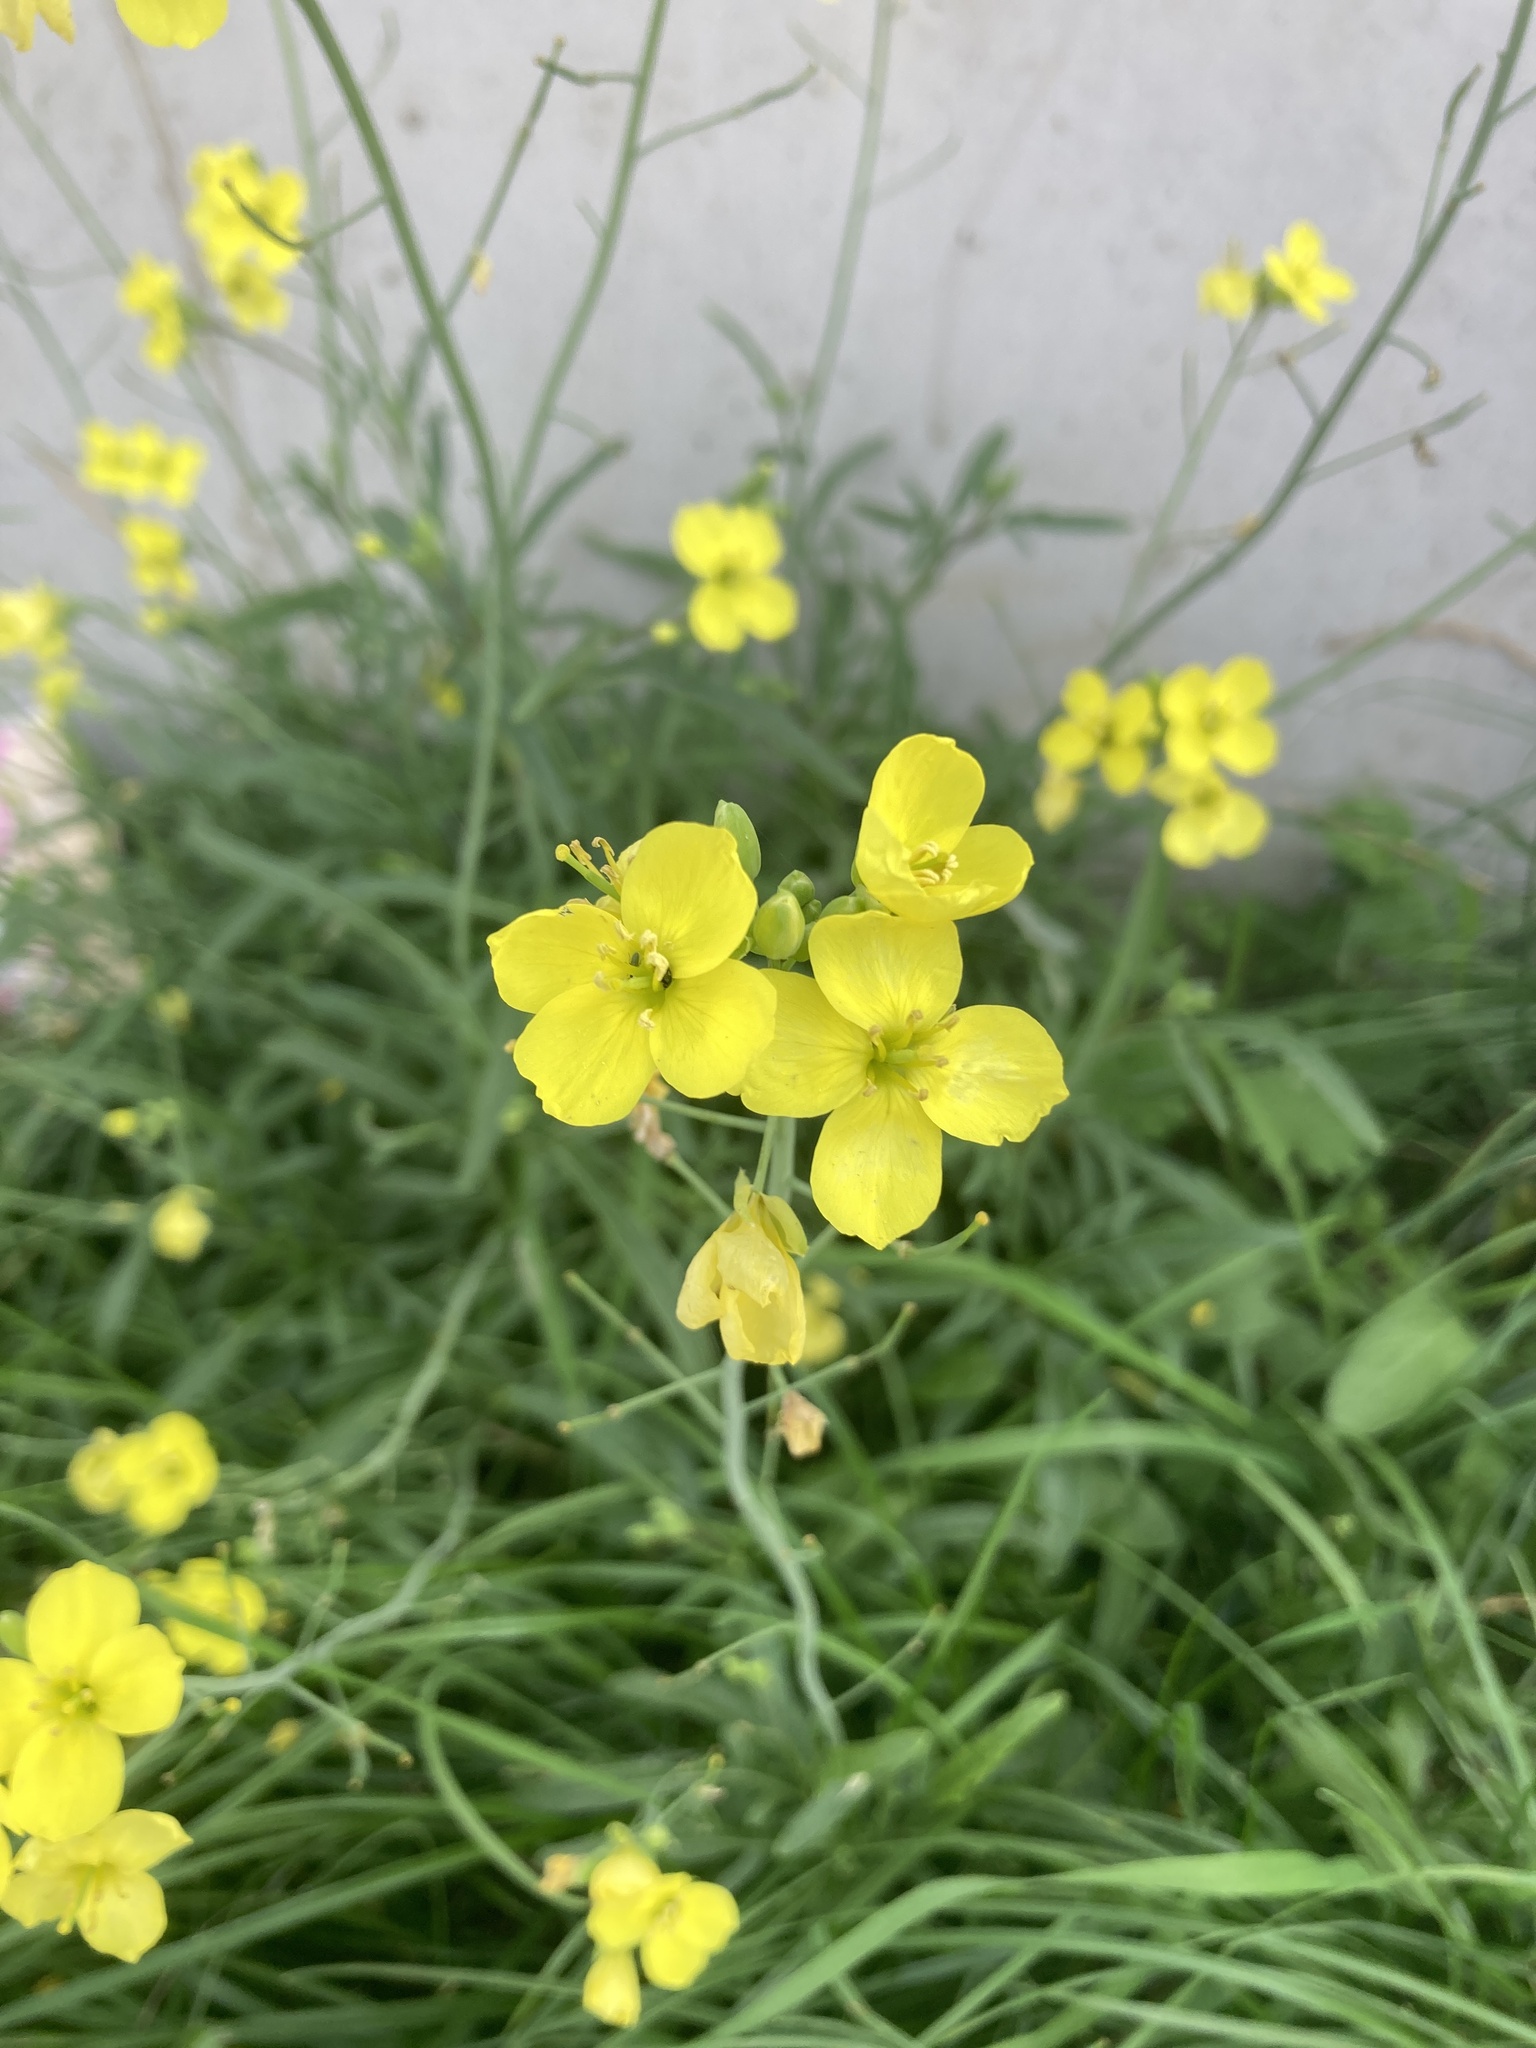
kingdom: Plantae
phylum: Tracheophyta
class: Magnoliopsida
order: Brassicales
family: Brassicaceae
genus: Diplotaxis
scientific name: Diplotaxis tenuifolia
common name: Perennial wall-rocket
